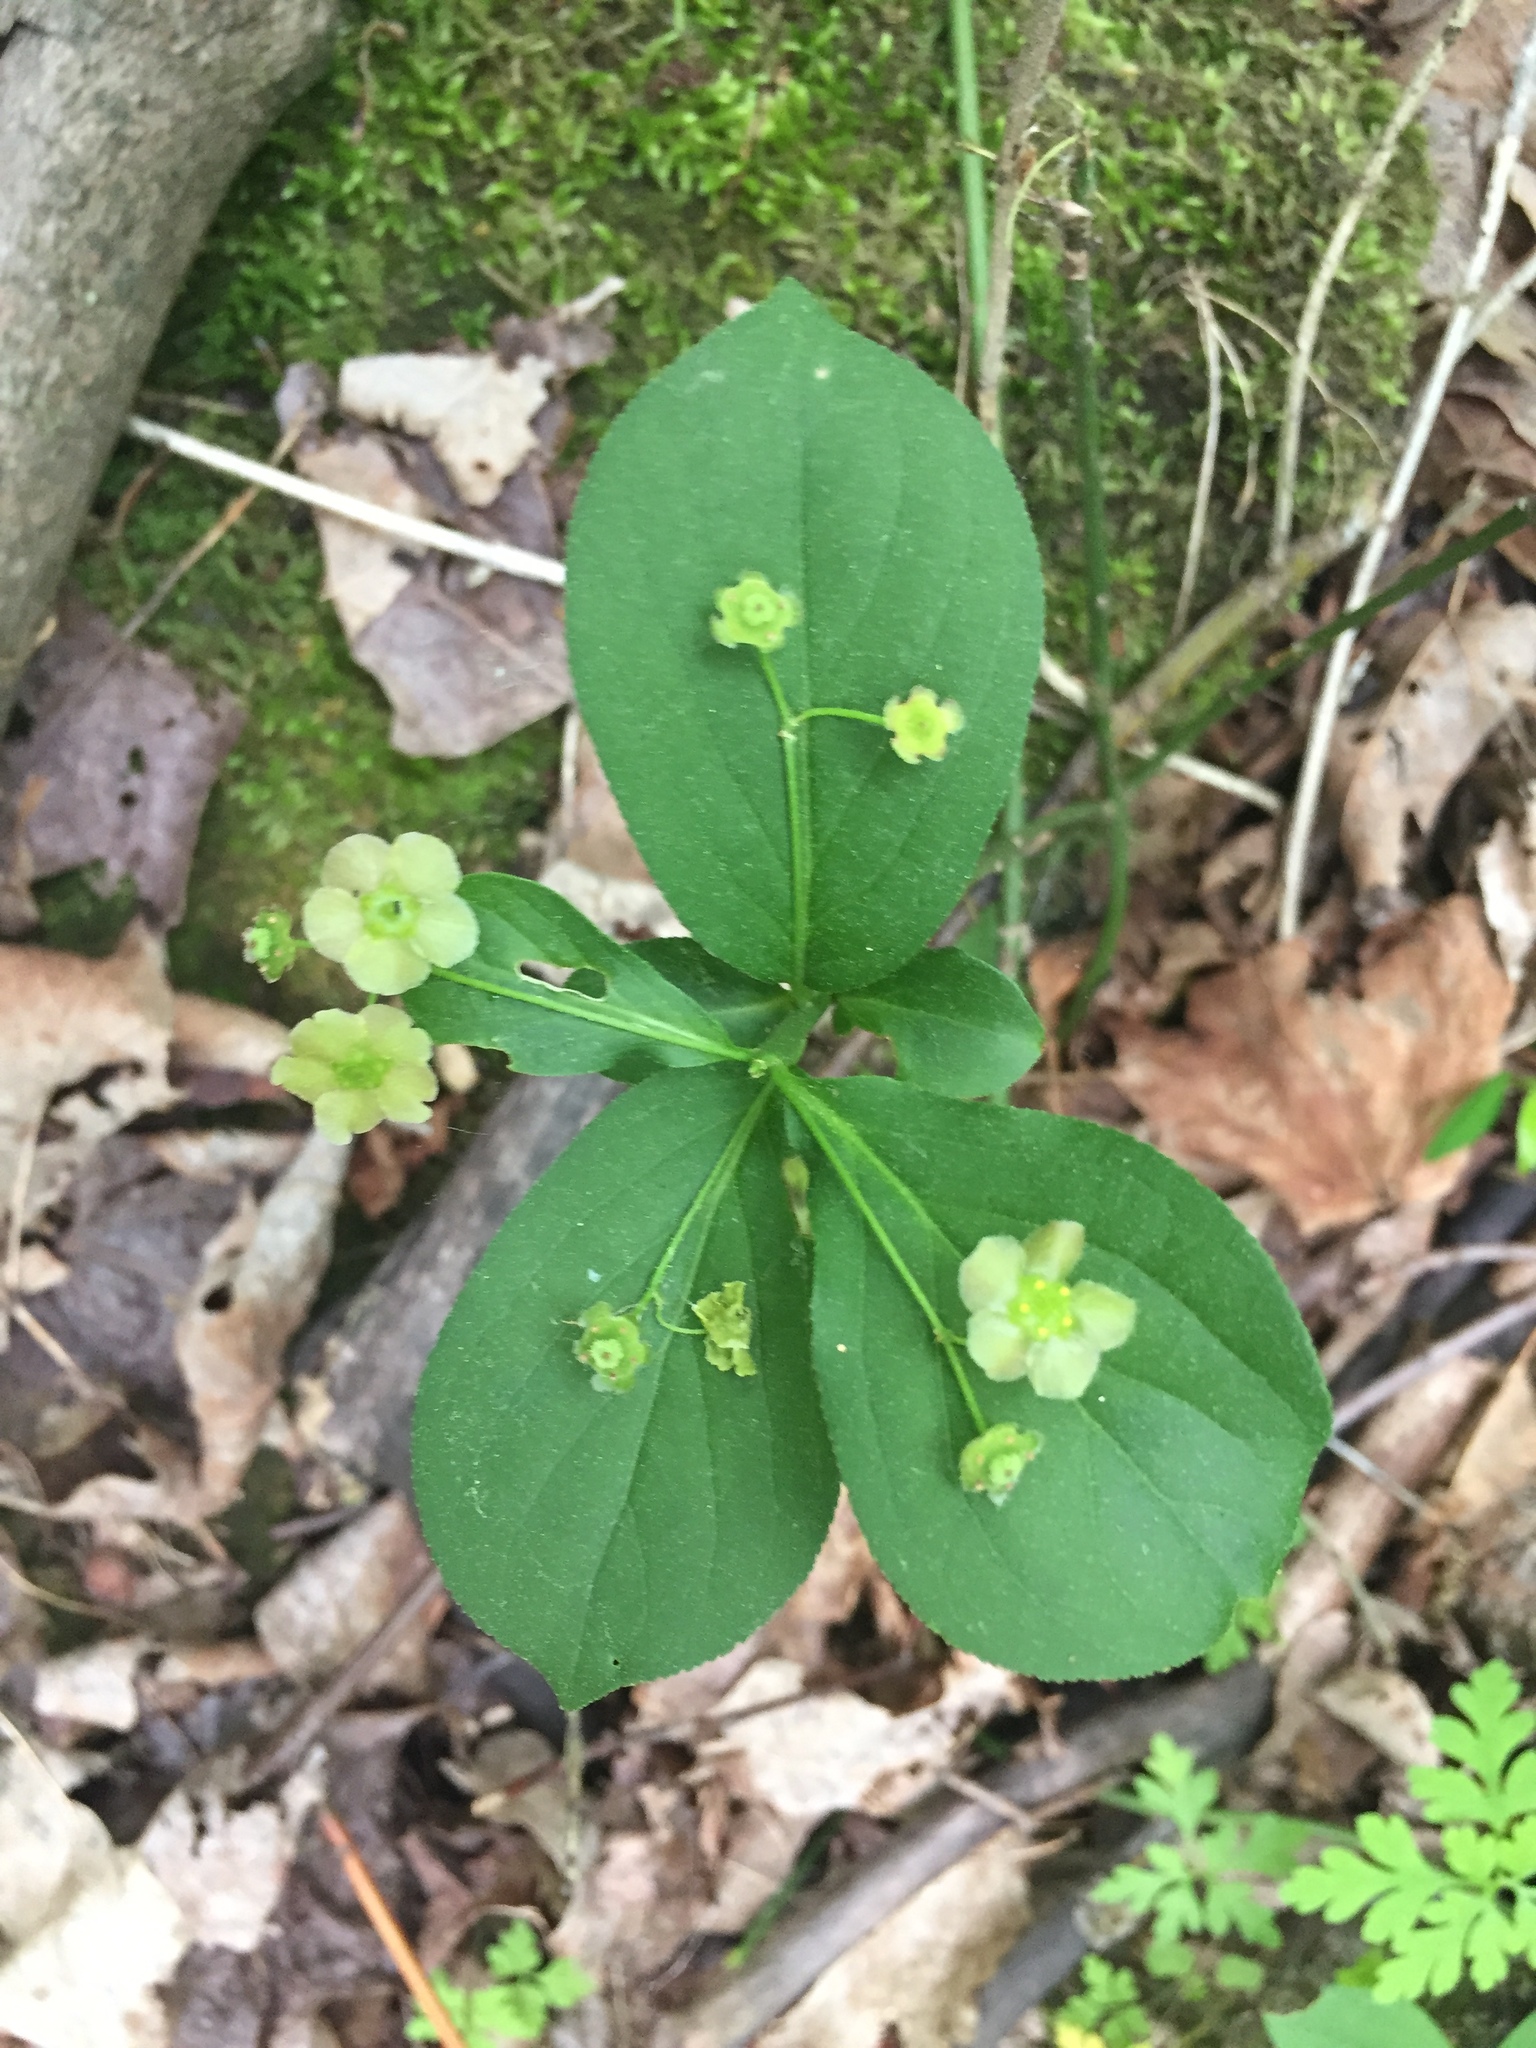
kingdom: Plantae
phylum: Tracheophyta
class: Magnoliopsida
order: Celastrales
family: Celastraceae
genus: Euonymus
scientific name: Euonymus obovatus
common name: Running strawberry-bush
